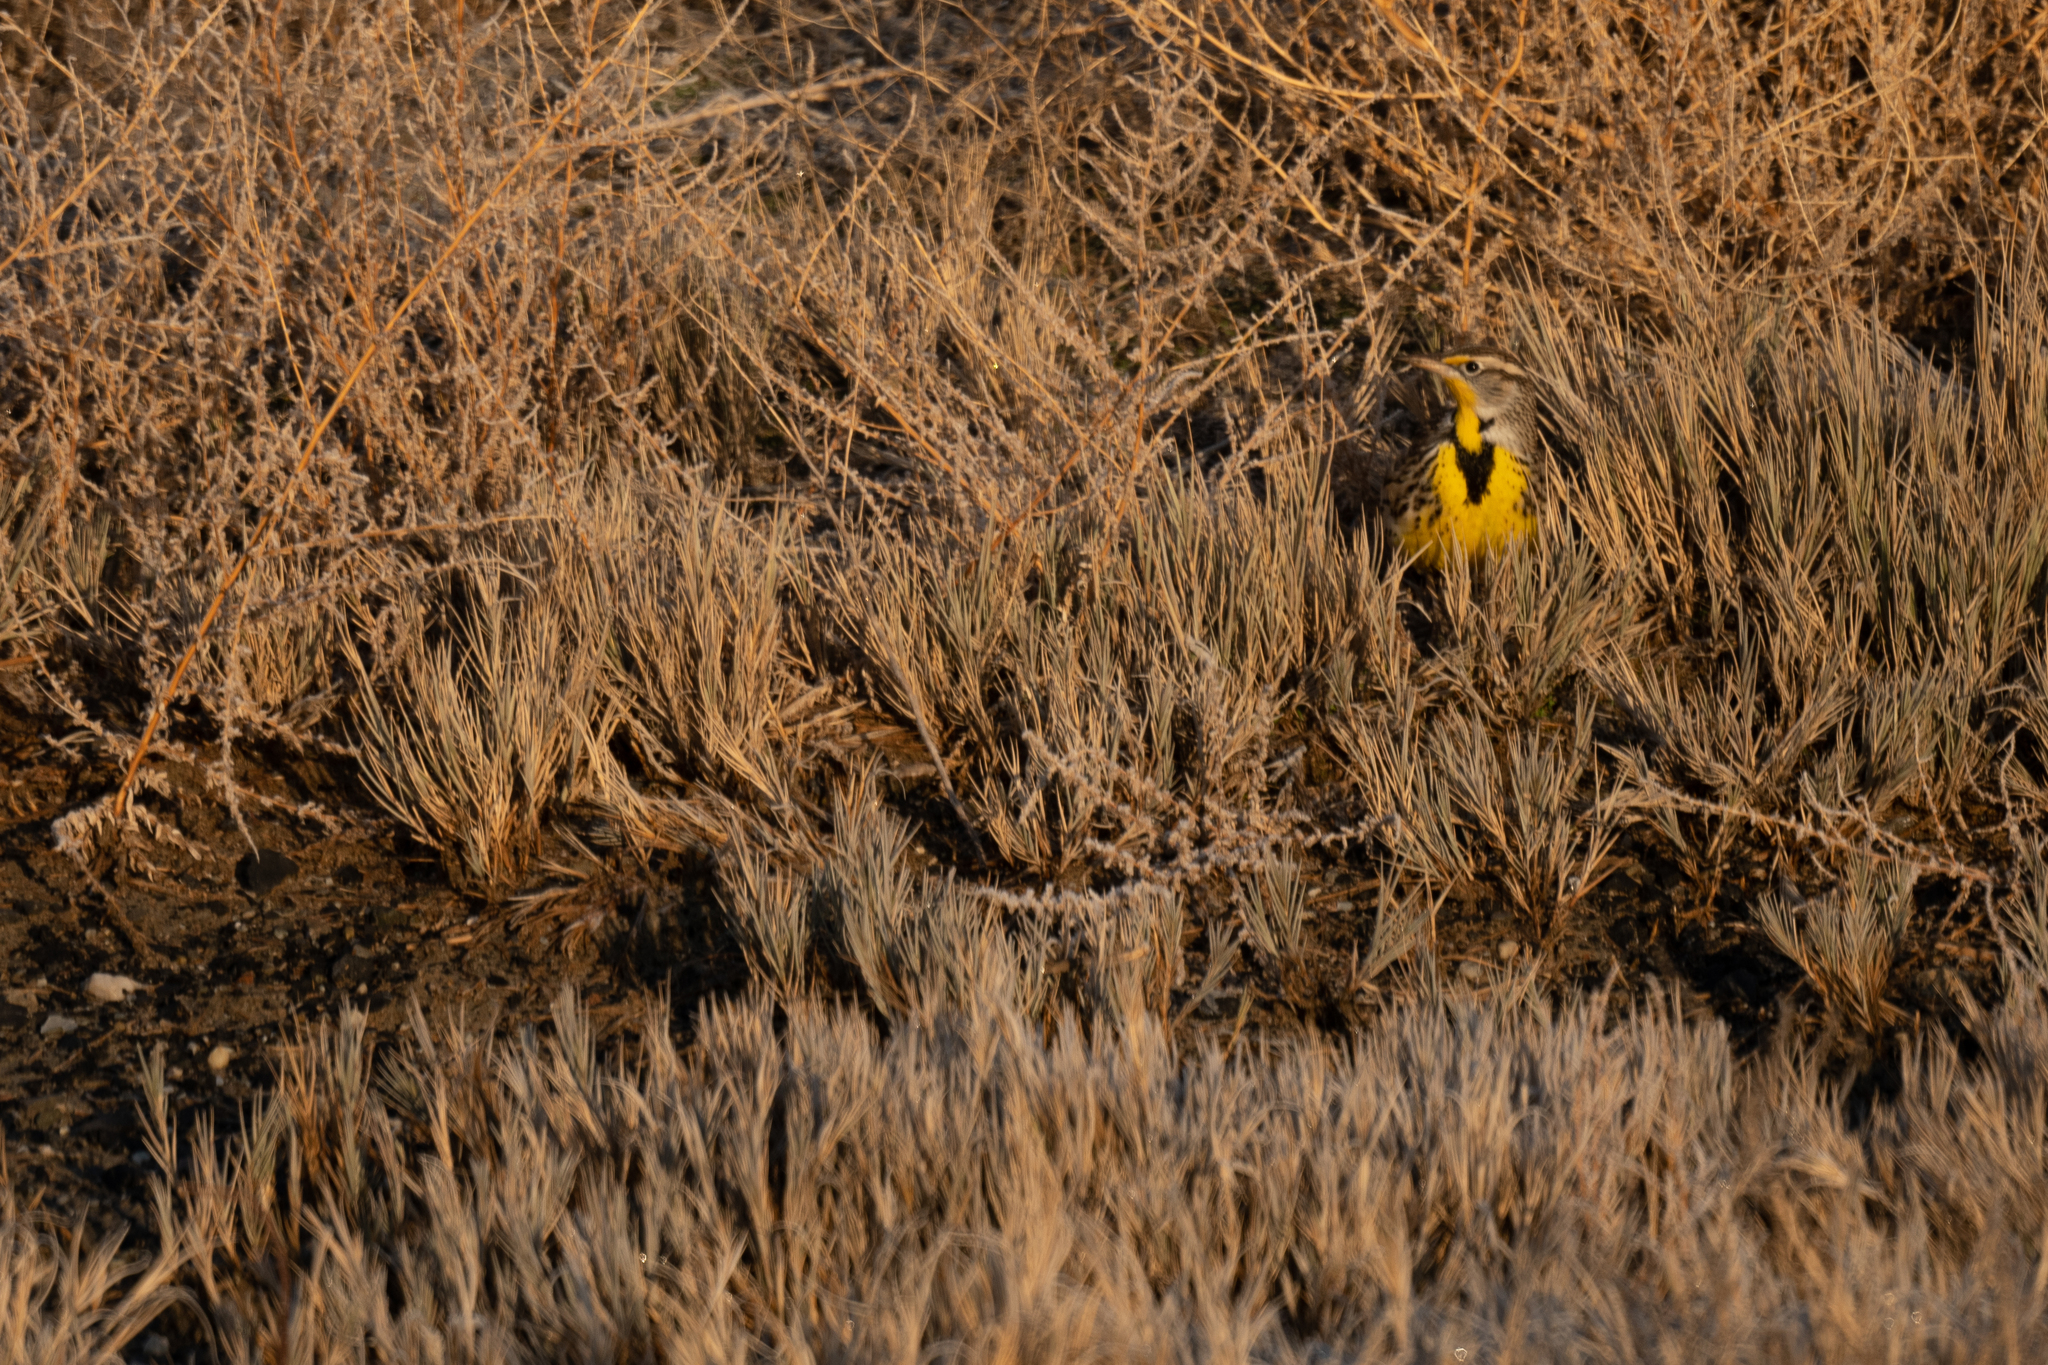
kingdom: Animalia
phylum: Chordata
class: Aves
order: Passeriformes
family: Icteridae
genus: Sturnella
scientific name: Sturnella neglecta
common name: Western meadowlark
